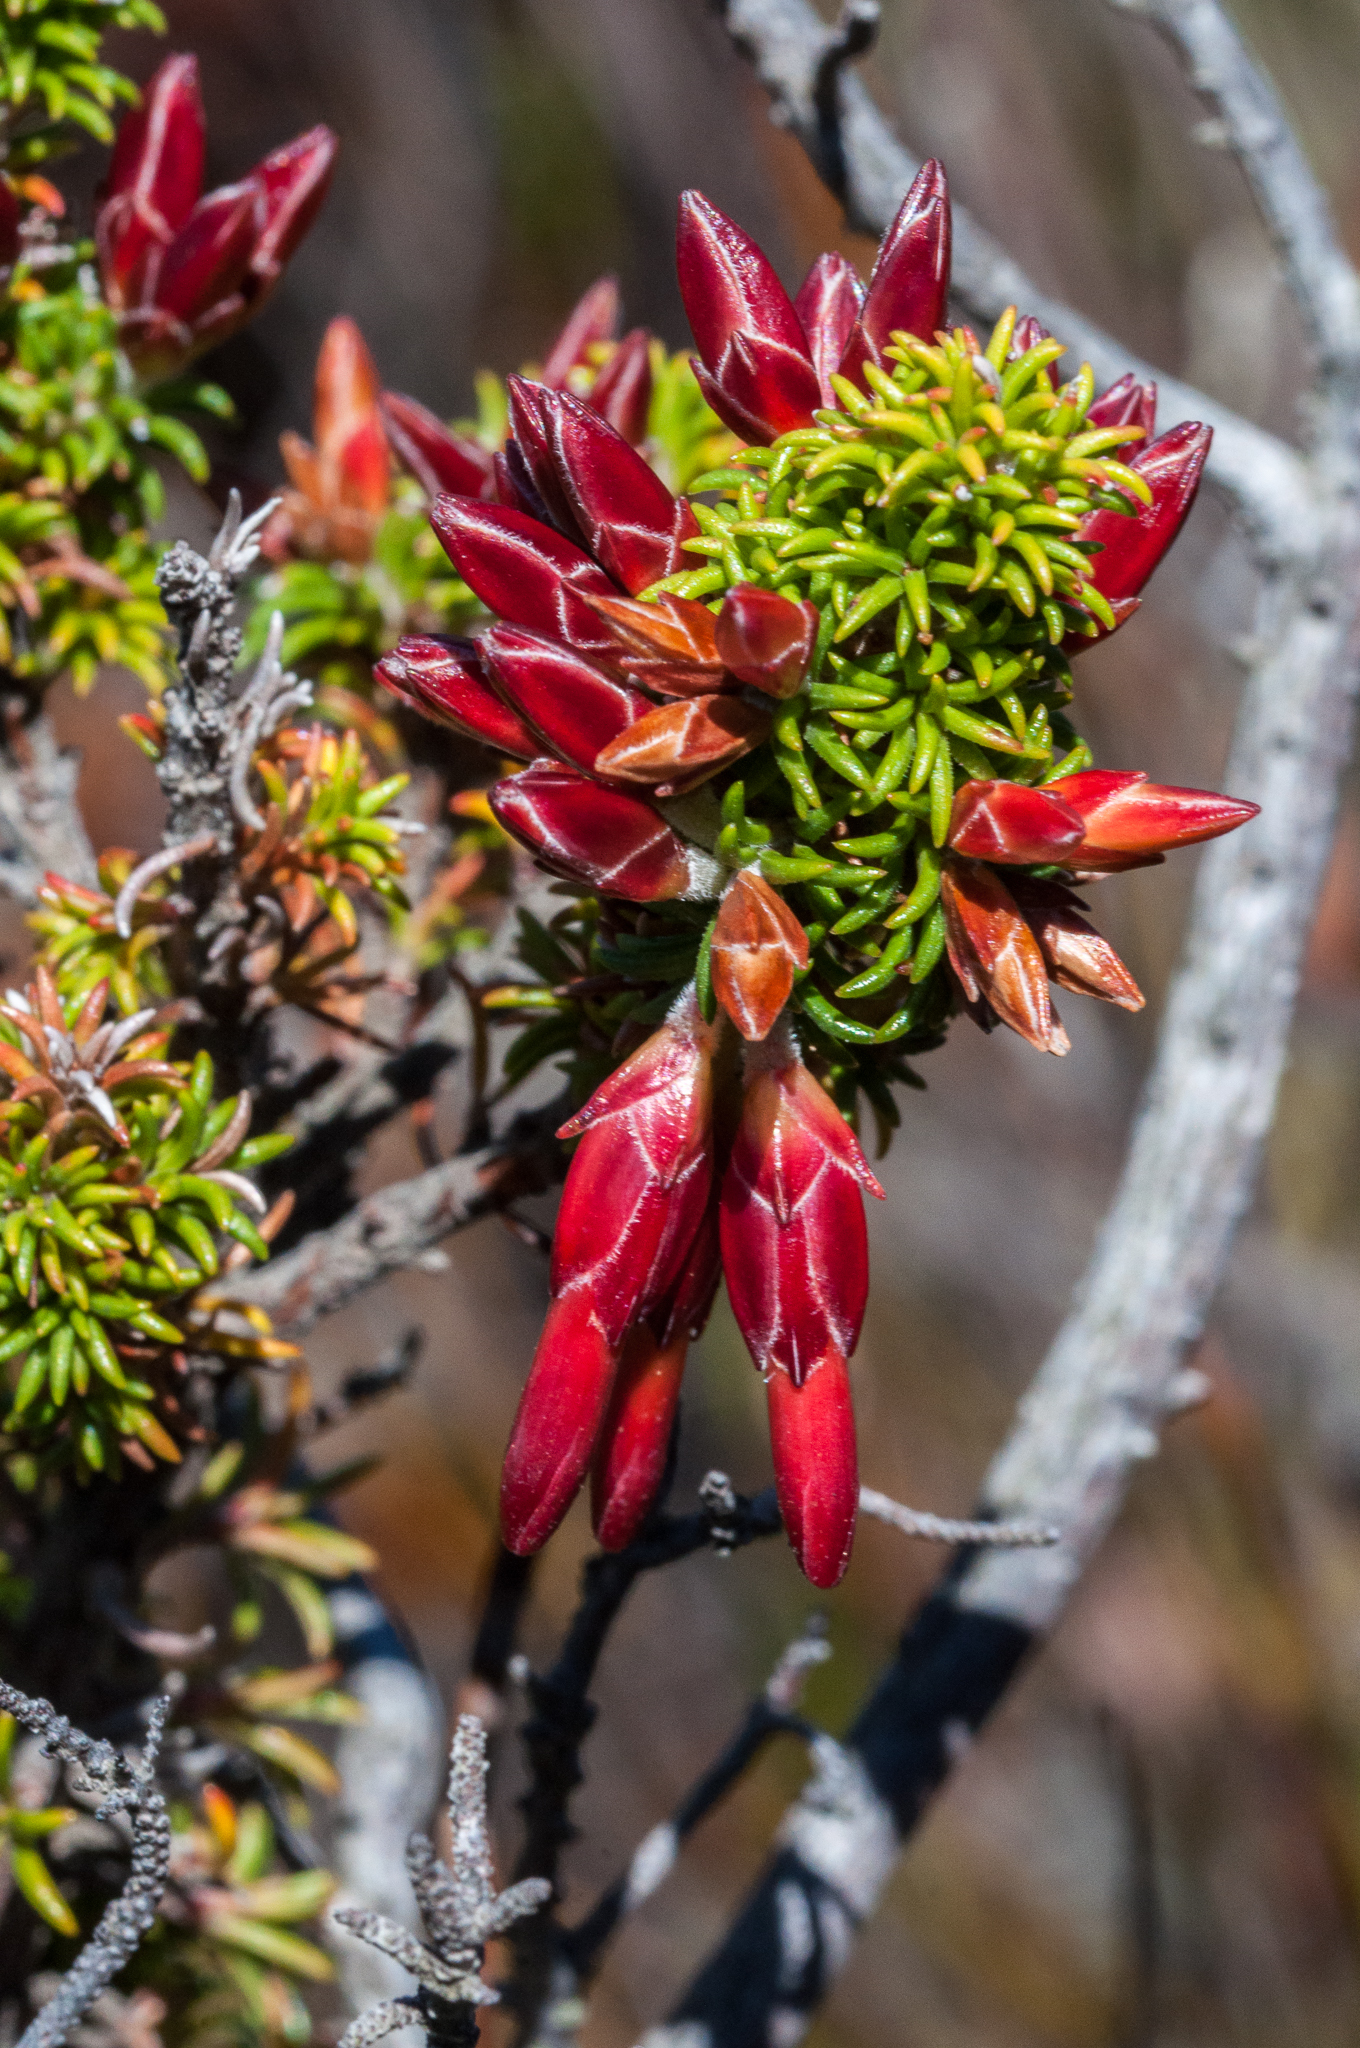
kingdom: Plantae
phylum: Tracheophyta
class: Magnoliopsida
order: Ericales
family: Ericaceae
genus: Erica
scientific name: Erica coccinea
